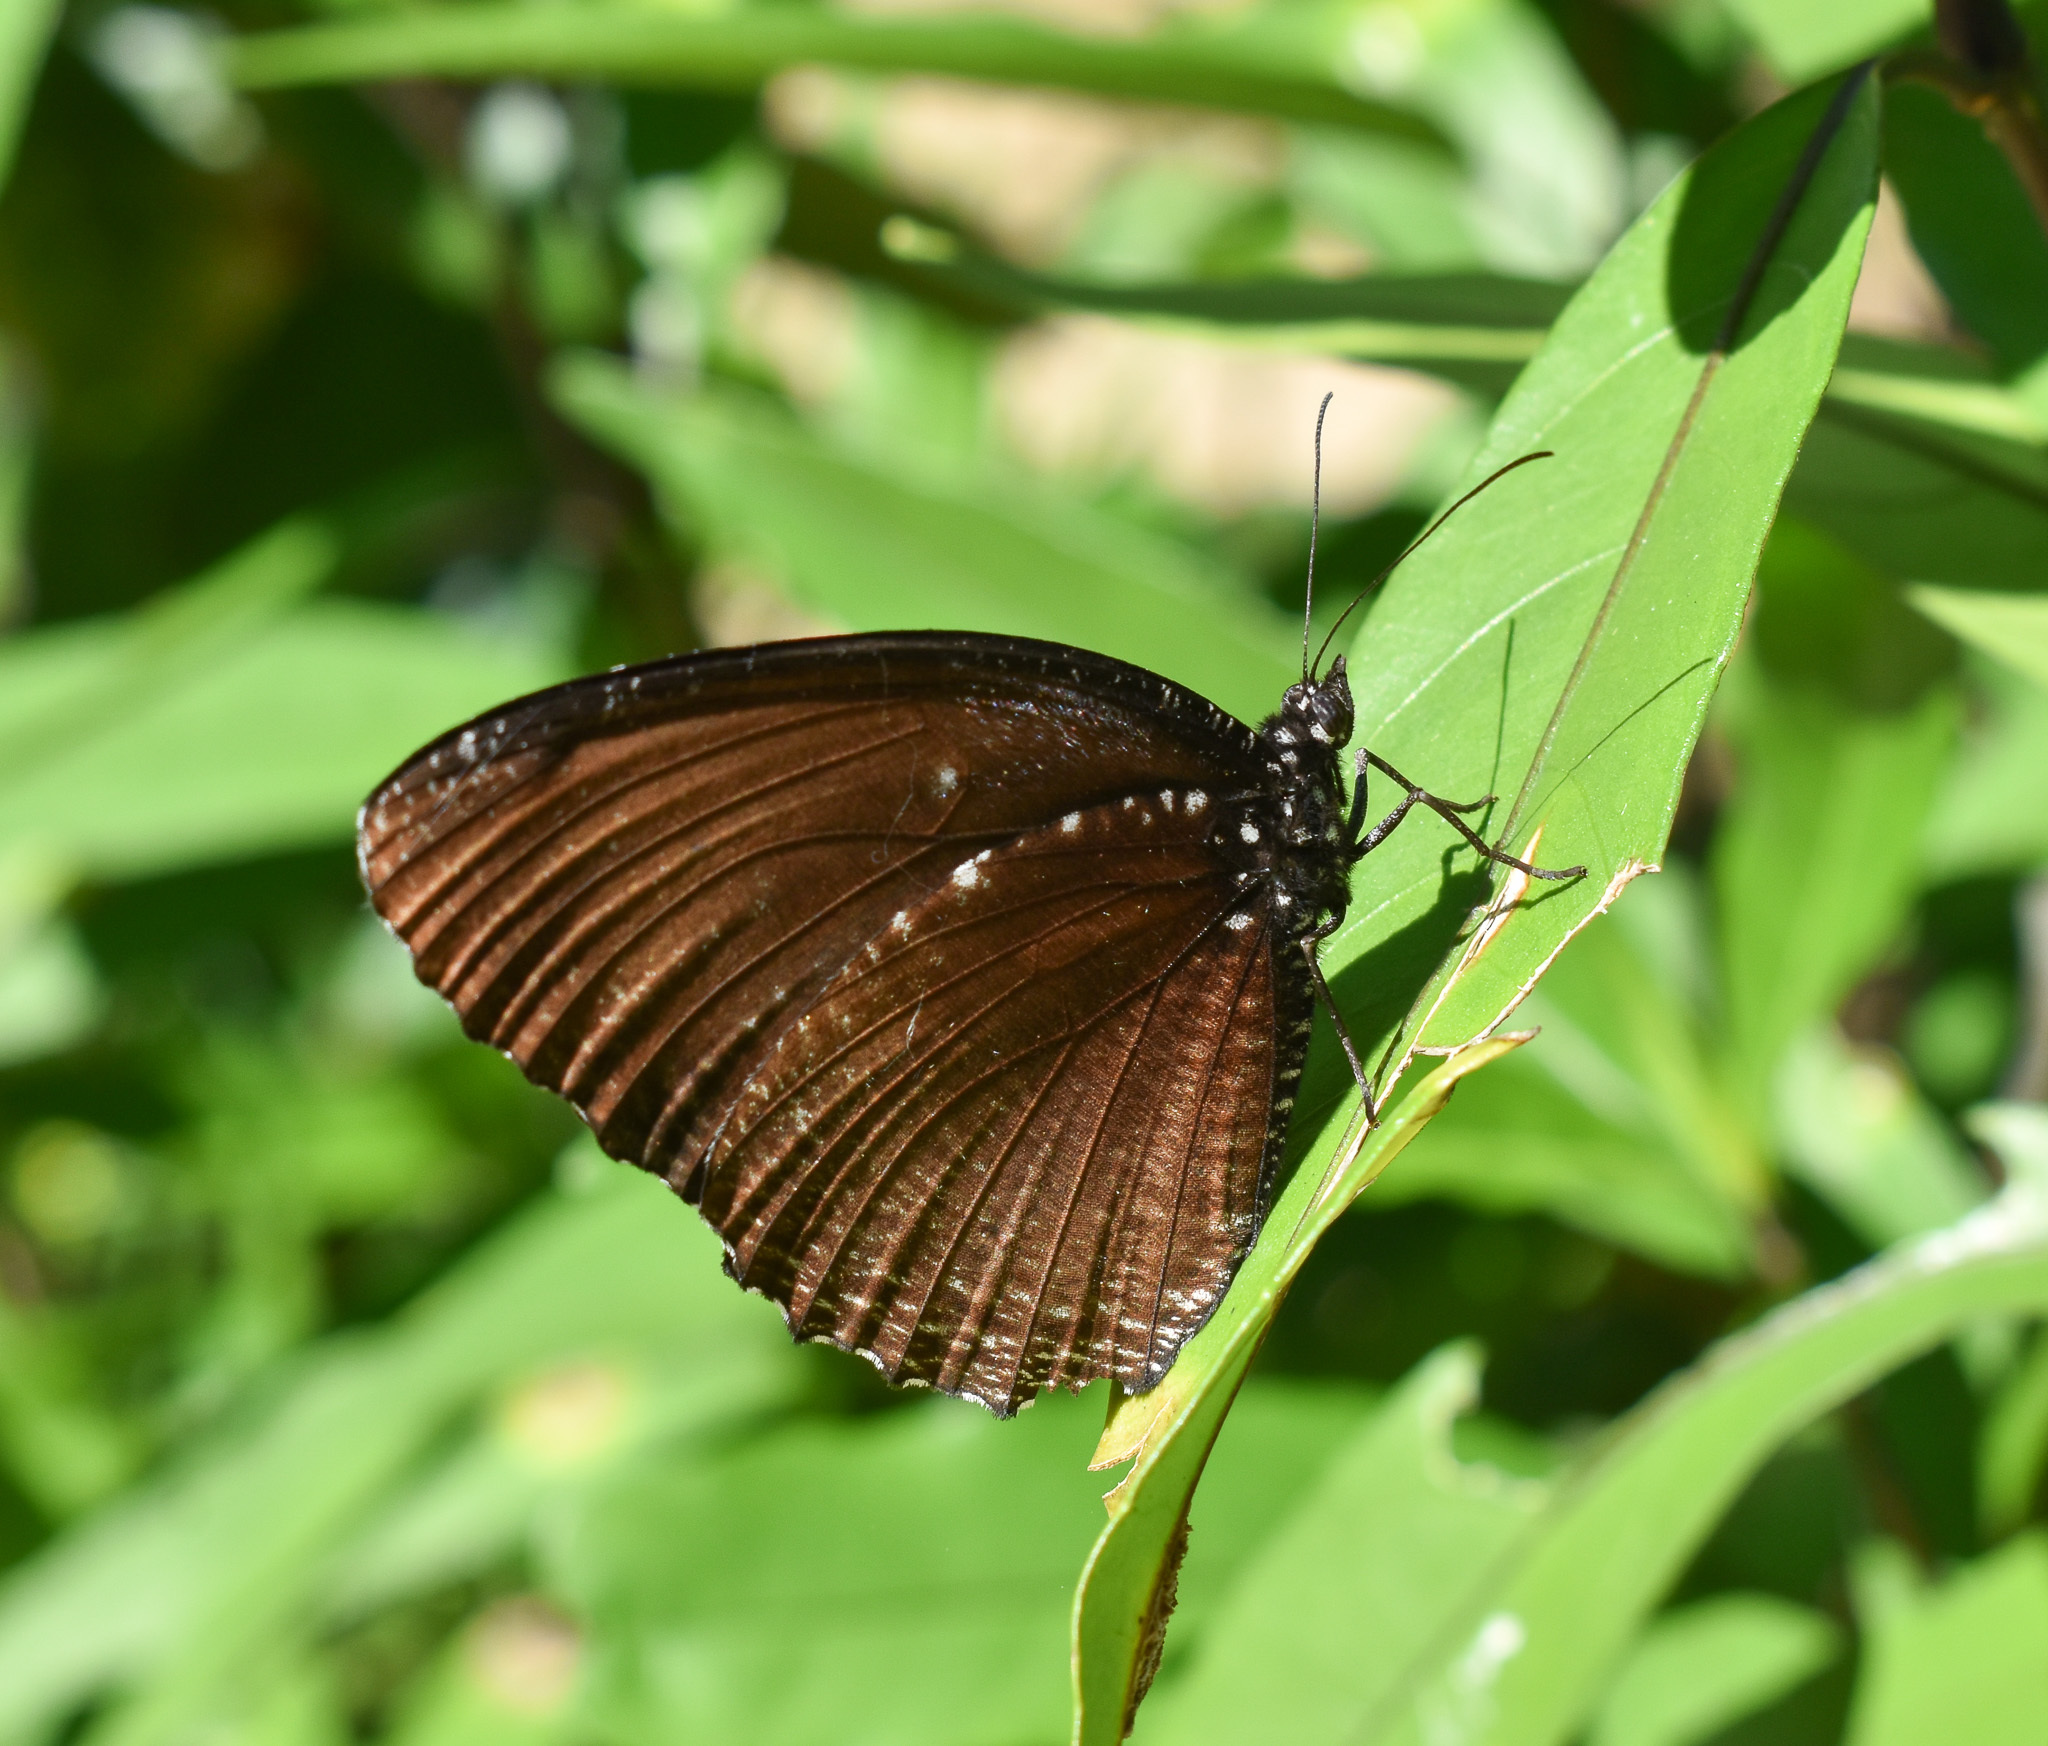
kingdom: Animalia
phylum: Arthropoda
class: Insecta
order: Lepidoptera
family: Nymphalidae
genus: Elymnias
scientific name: Elymnias malelas
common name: Spotted palmfly
